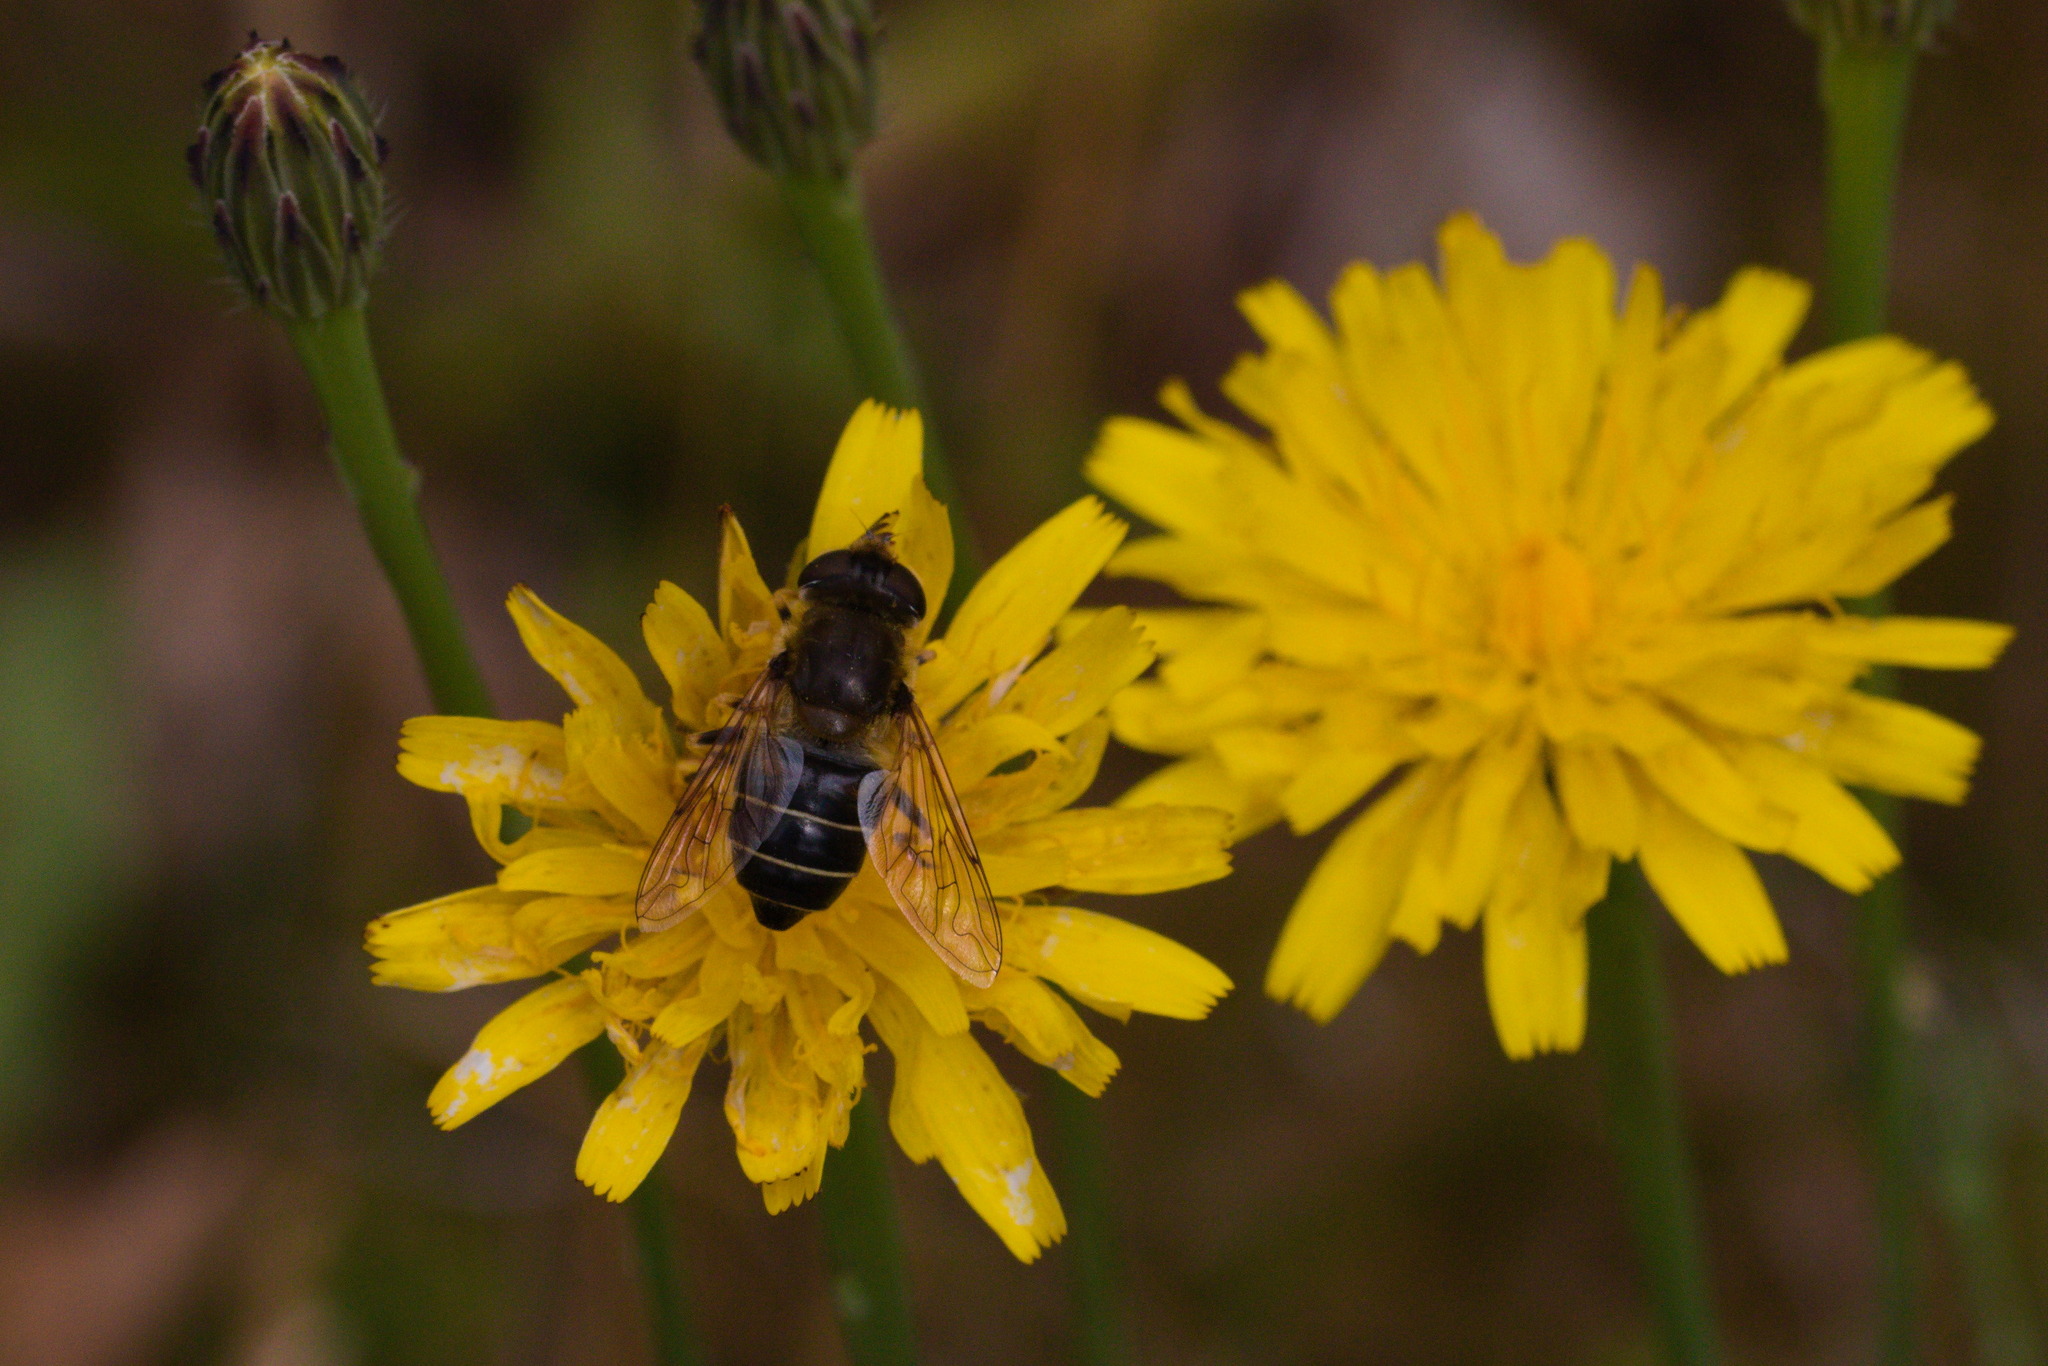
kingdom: Animalia
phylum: Arthropoda
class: Insecta
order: Diptera
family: Syrphidae
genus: Eristalis
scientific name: Eristalis arbustorum
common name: Hover fly
